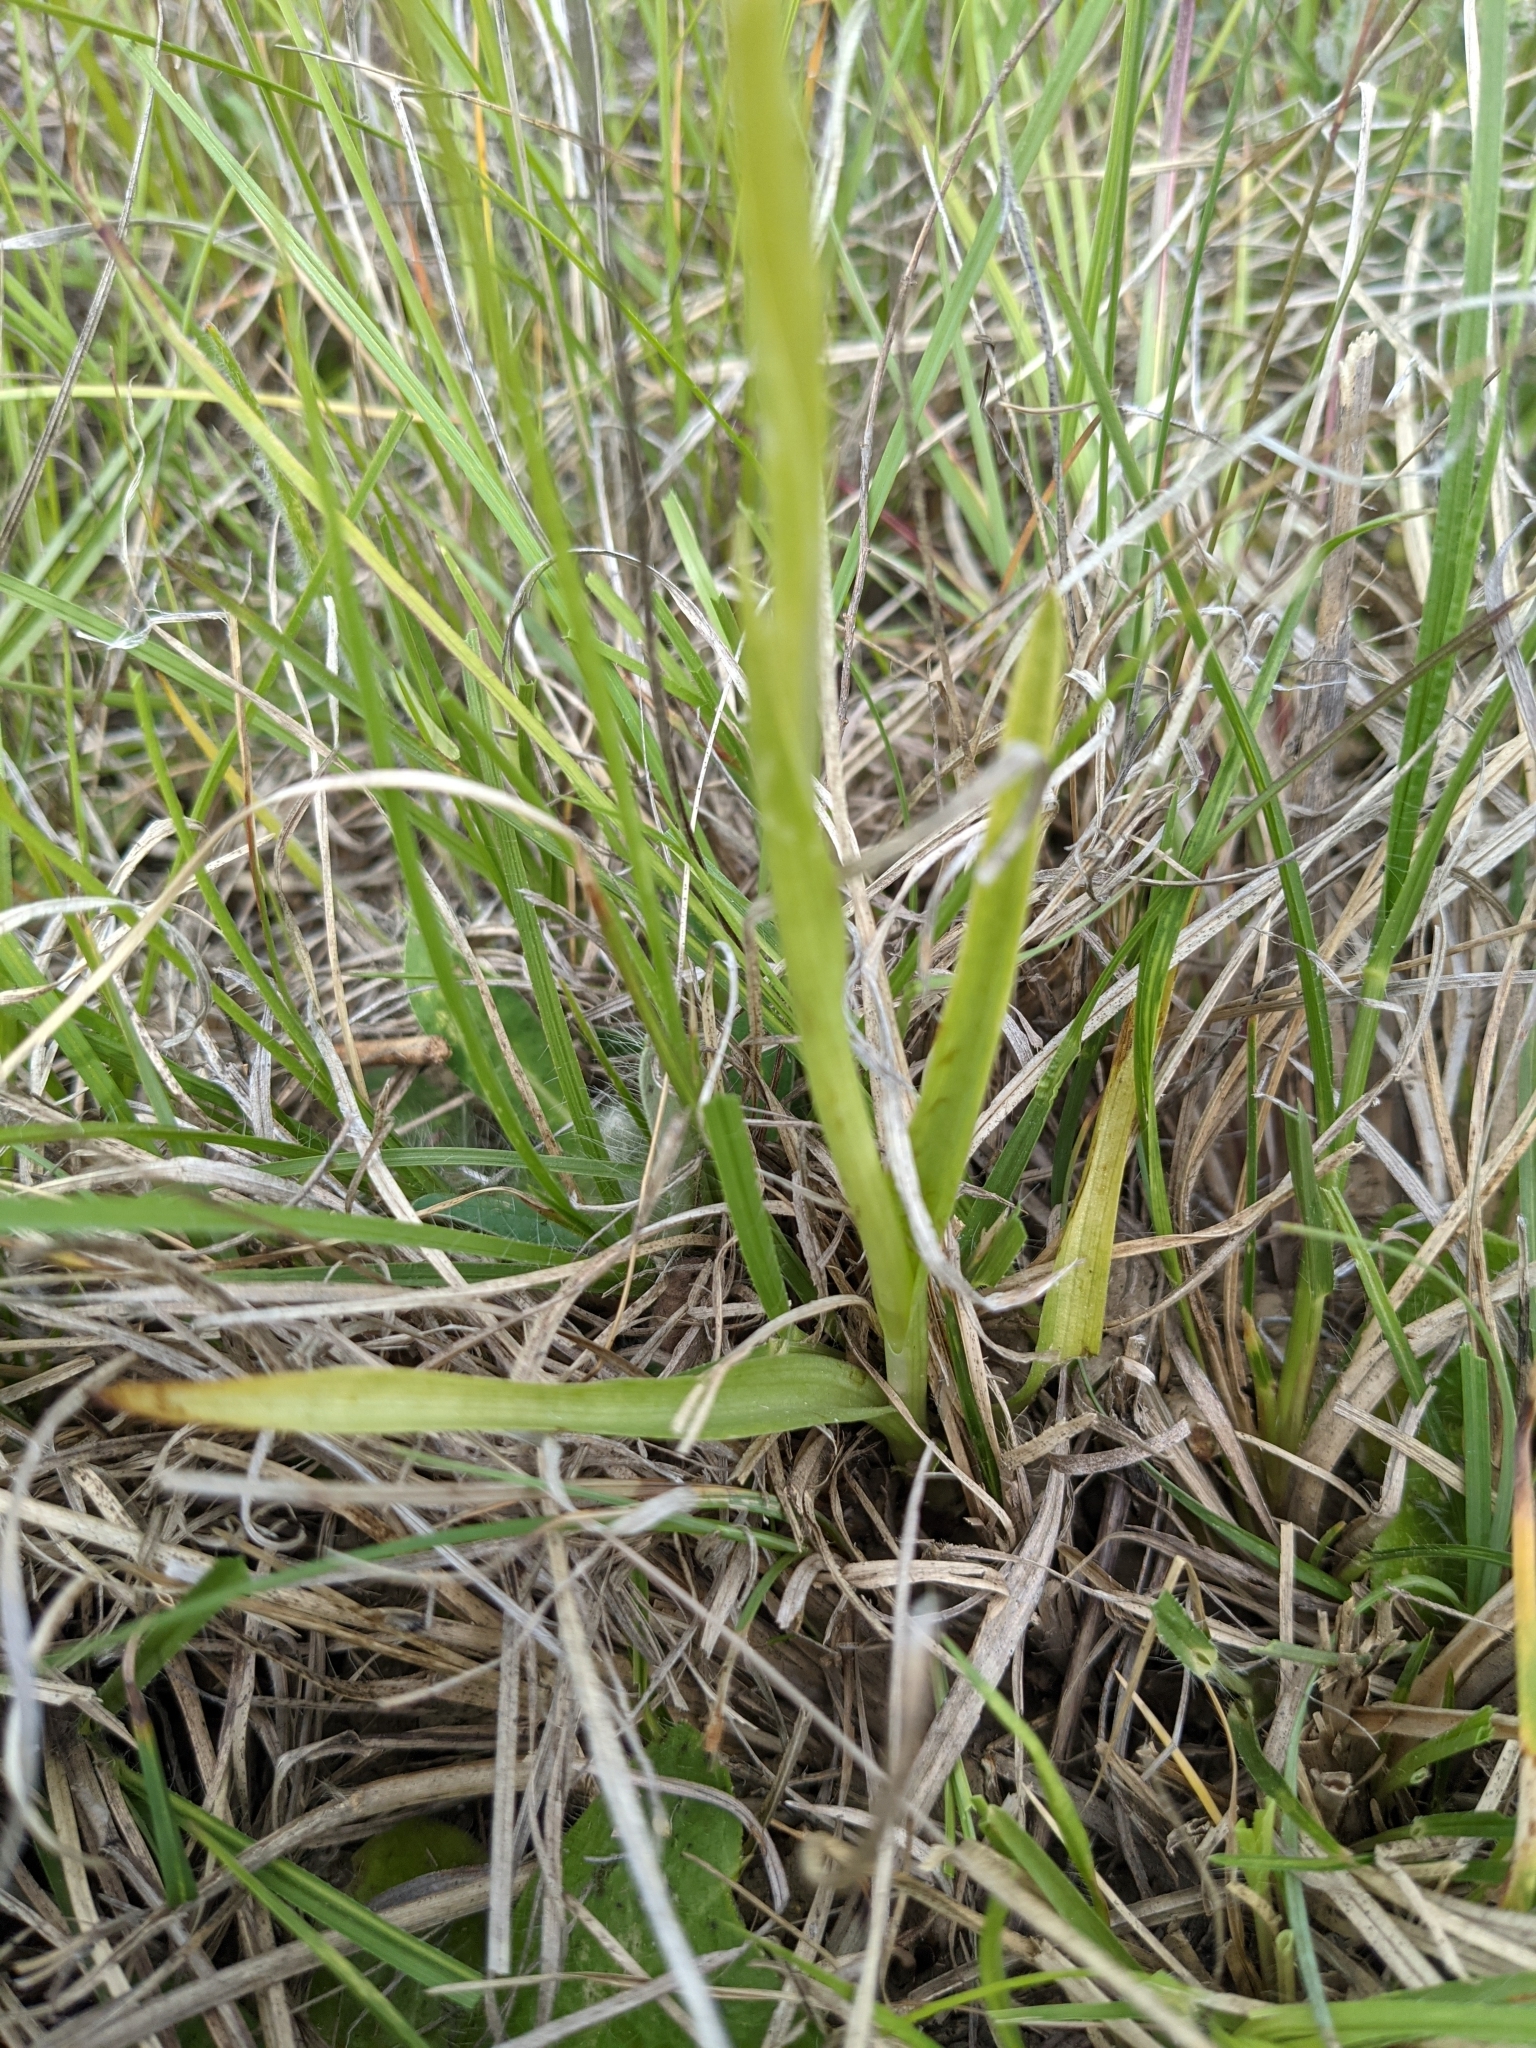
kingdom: Plantae
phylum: Tracheophyta
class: Liliopsida
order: Asparagales
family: Orchidaceae
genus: Anacamptis
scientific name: Anacamptis coriophora
